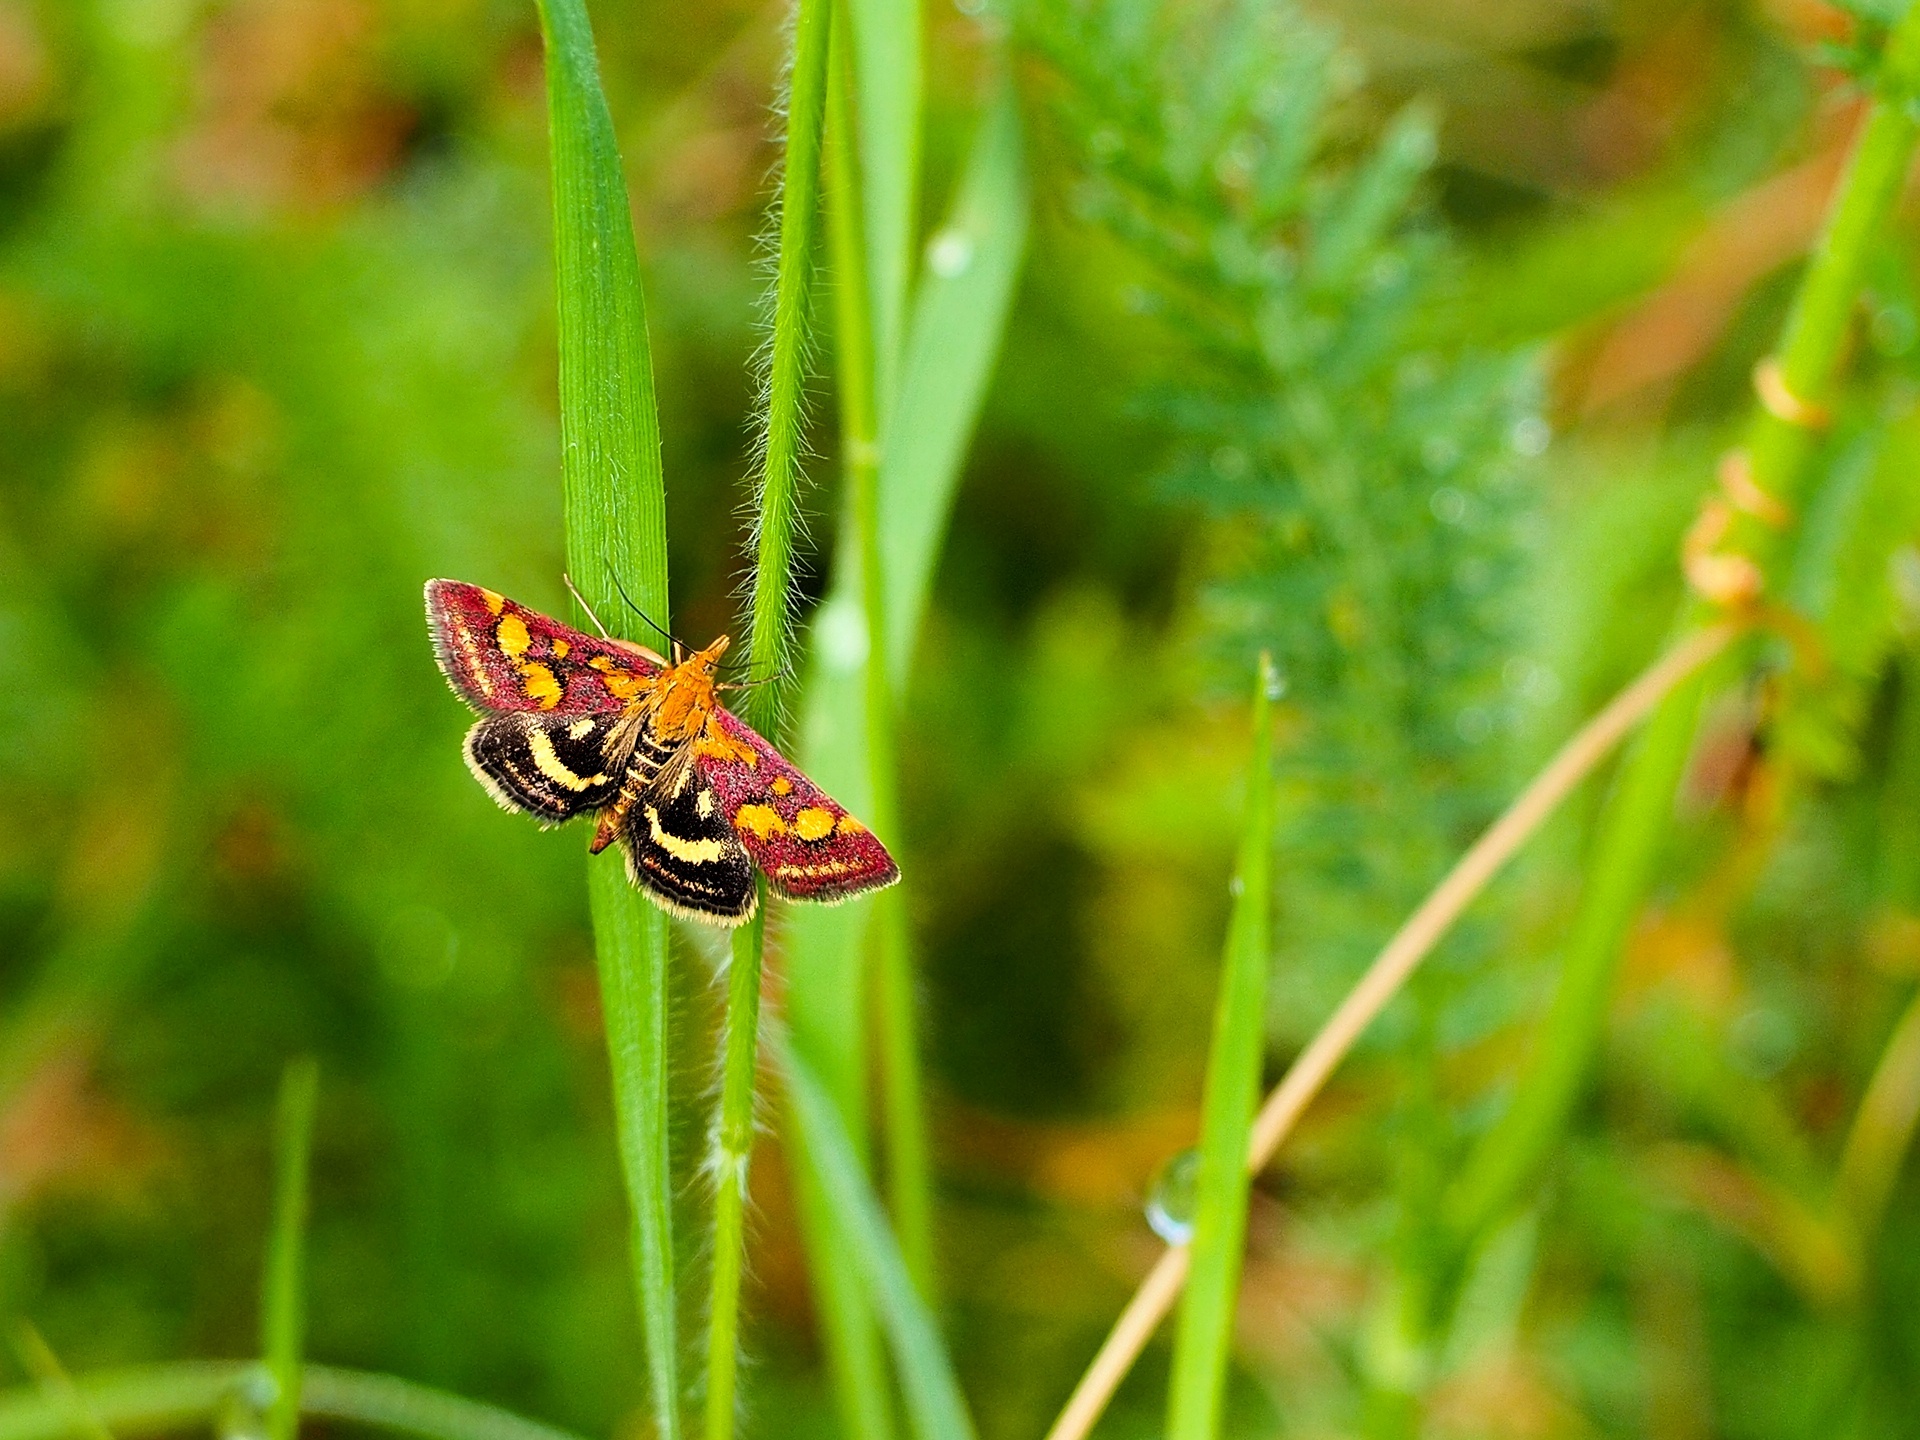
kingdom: Animalia
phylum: Arthropoda
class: Insecta
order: Lepidoptera
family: Crambidae
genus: Pyrausta
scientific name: Pyrausta purpuralis
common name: Common purple & gold
